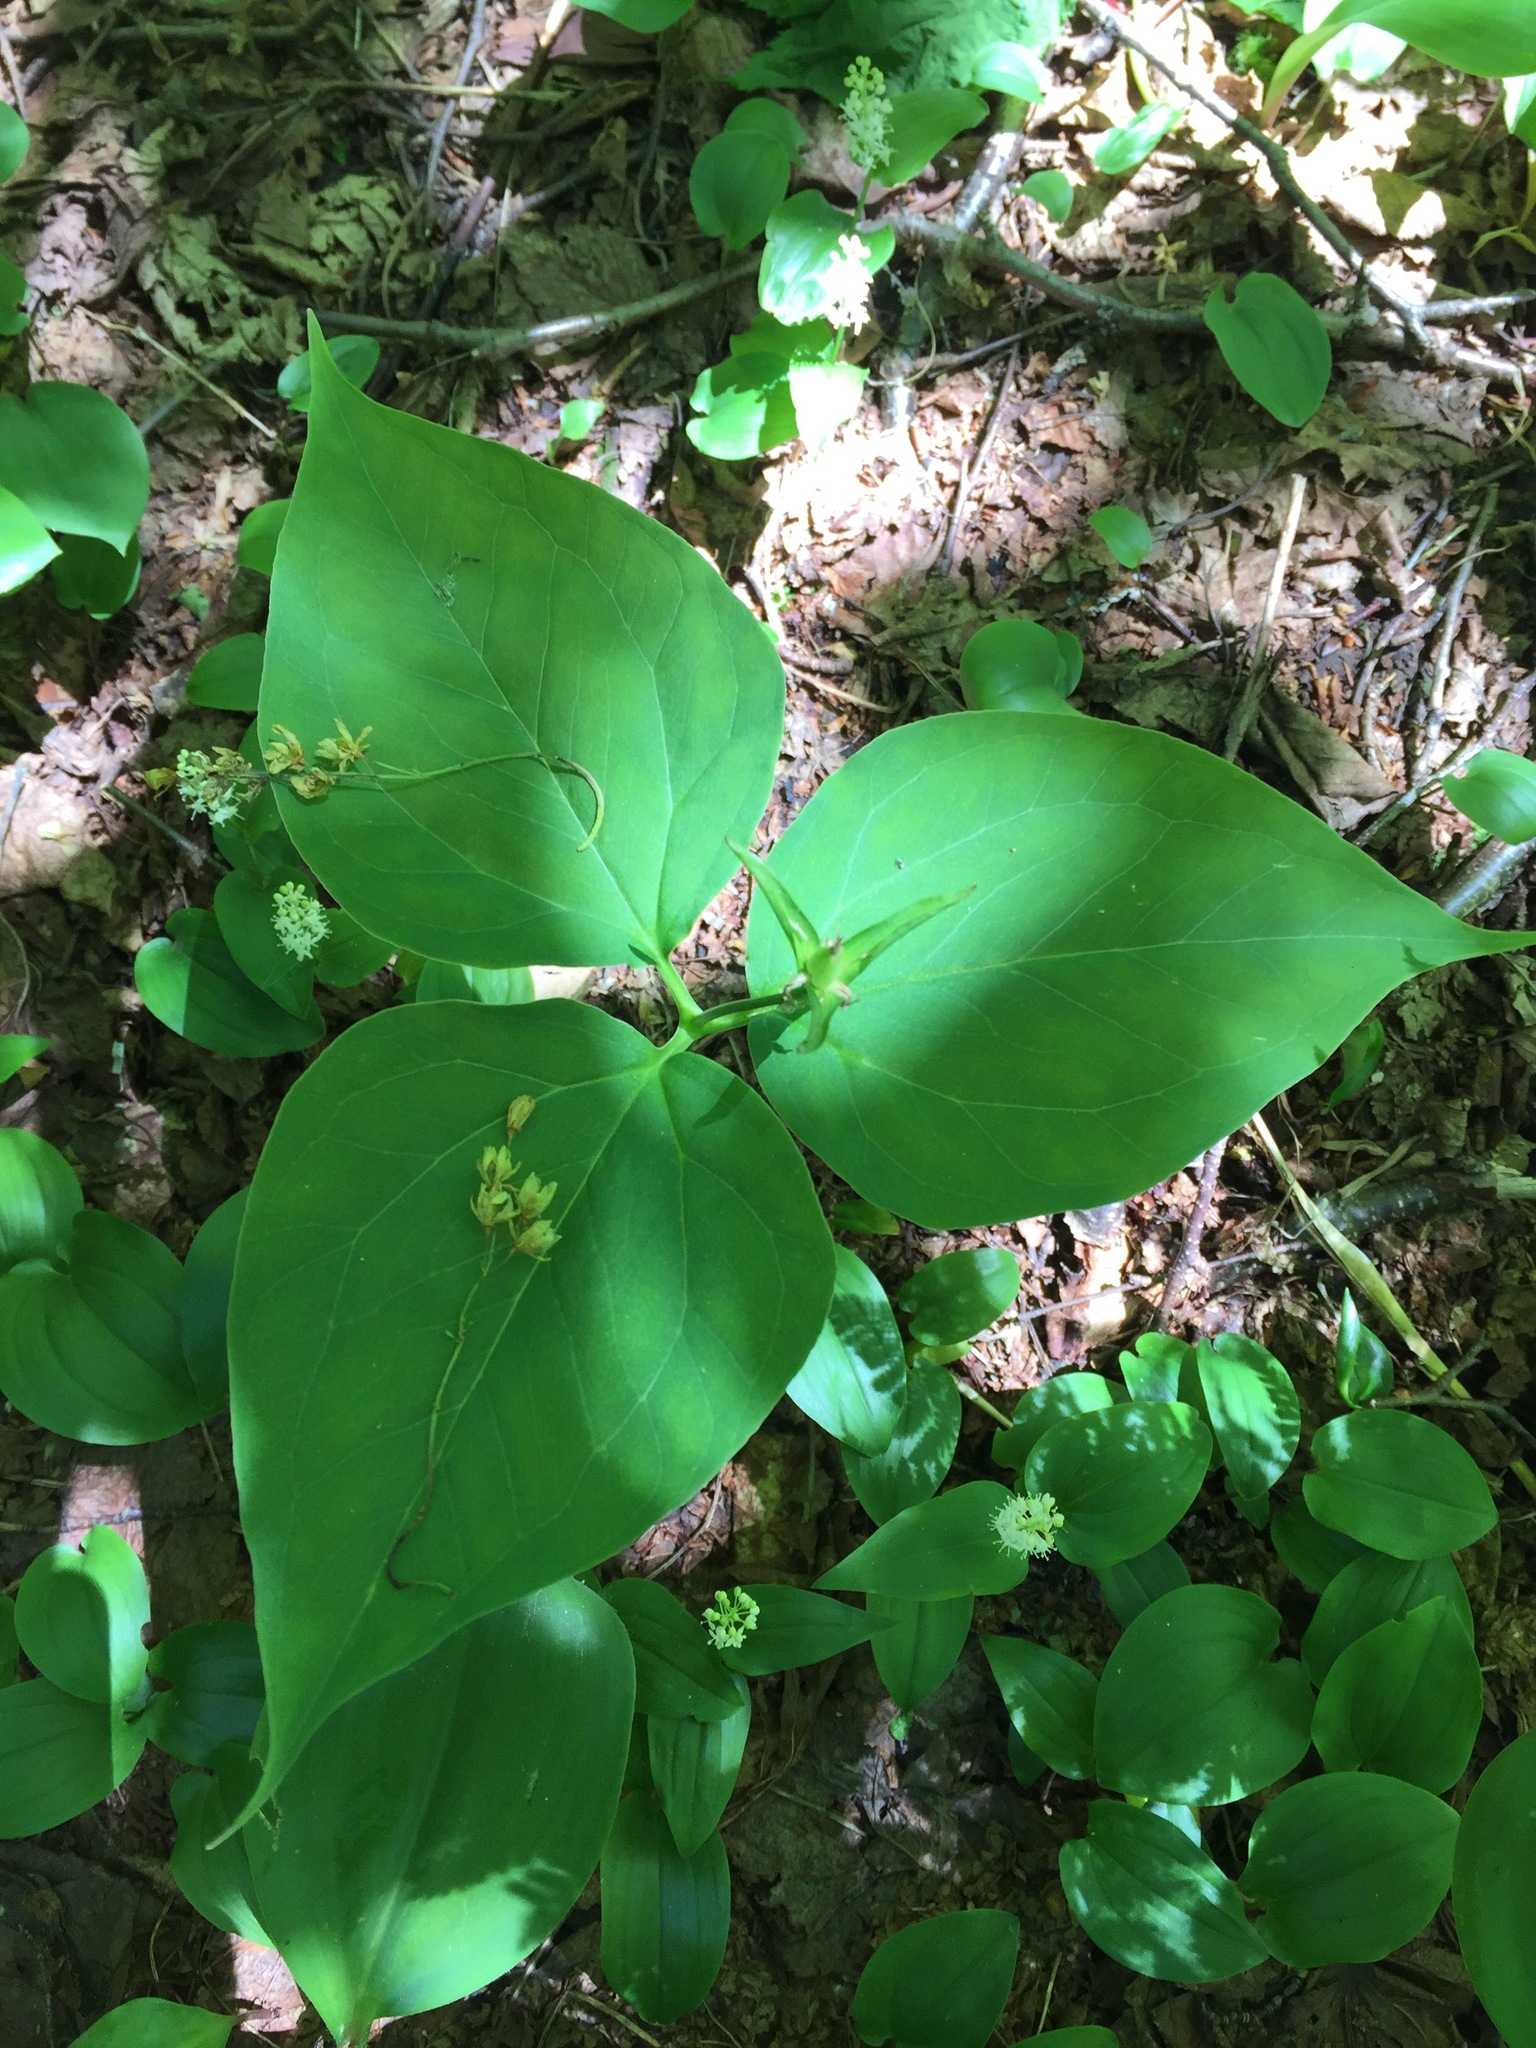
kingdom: Plantae
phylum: Tracheophyta
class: Liliopsida
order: Liliales
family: Melanthiaceae
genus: Trillium
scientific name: Trillium undulatum
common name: Paint trillium
